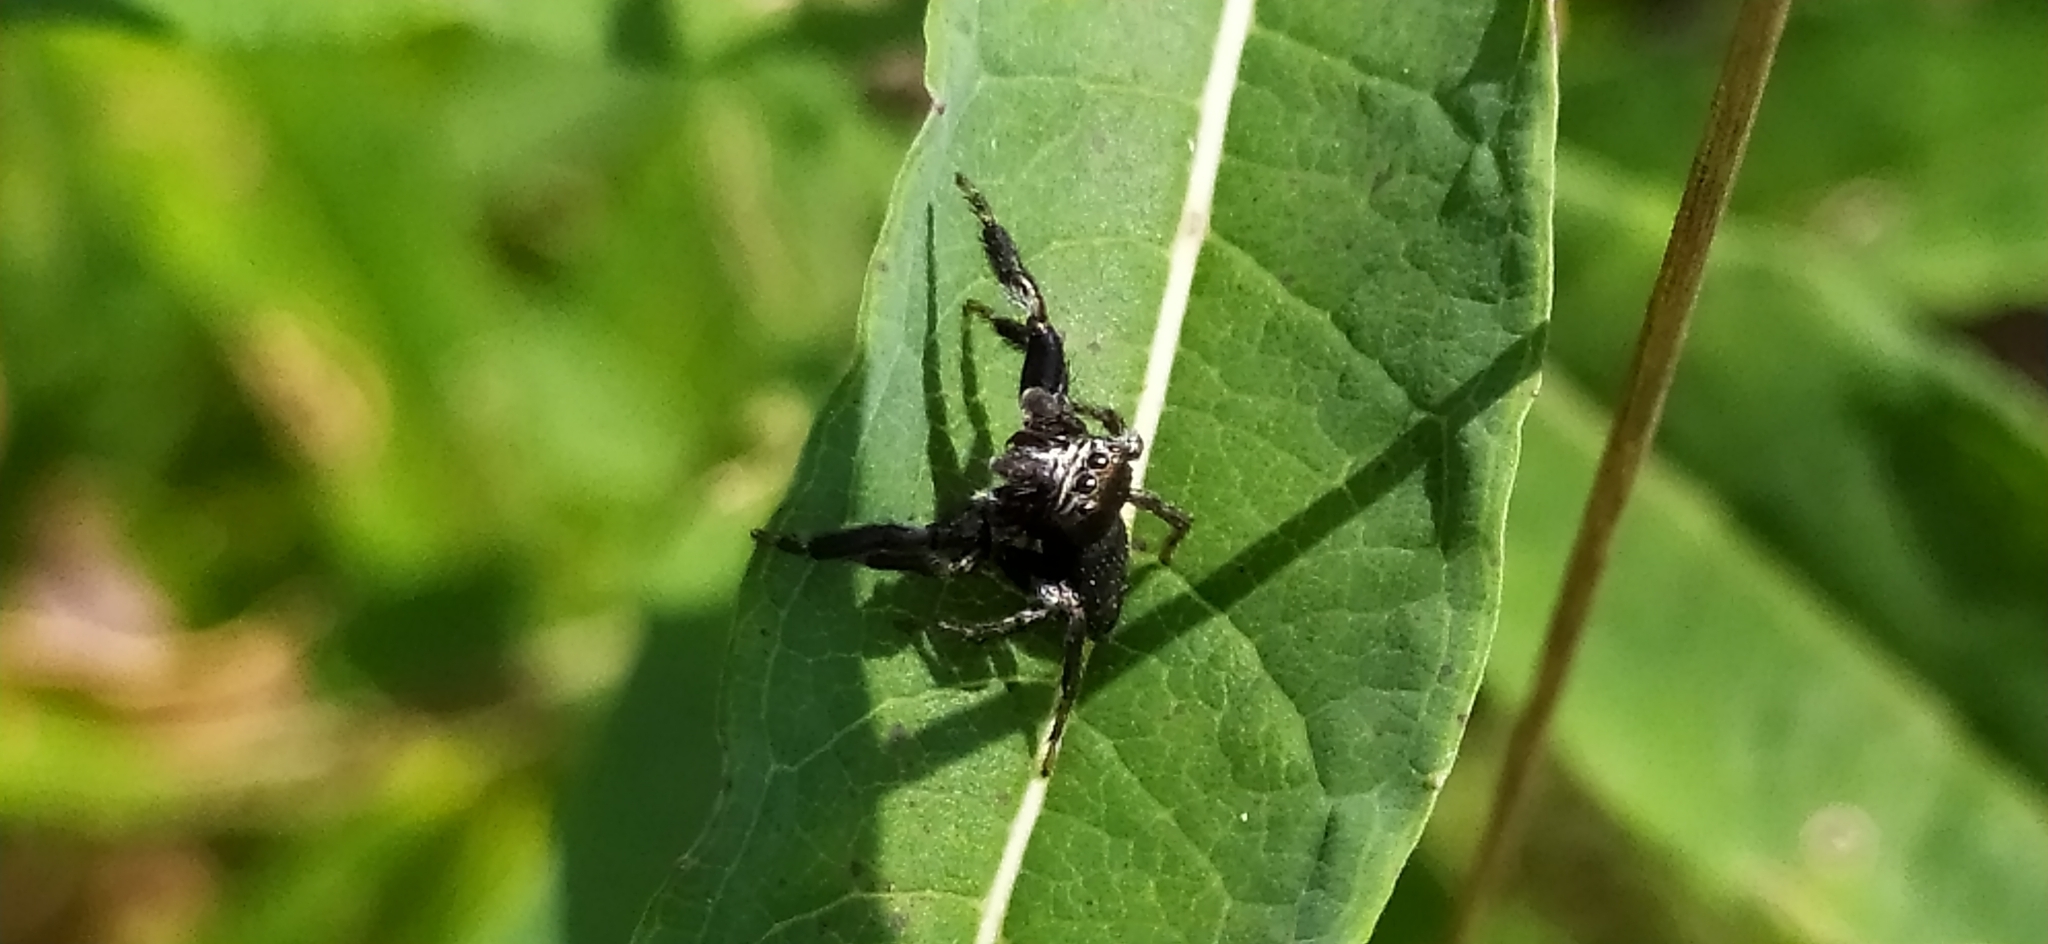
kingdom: Animalia
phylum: Arthropoda
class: Arachnida
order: Araneae
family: Salticidae
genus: Evarcha
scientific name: Evarcha arcuata
